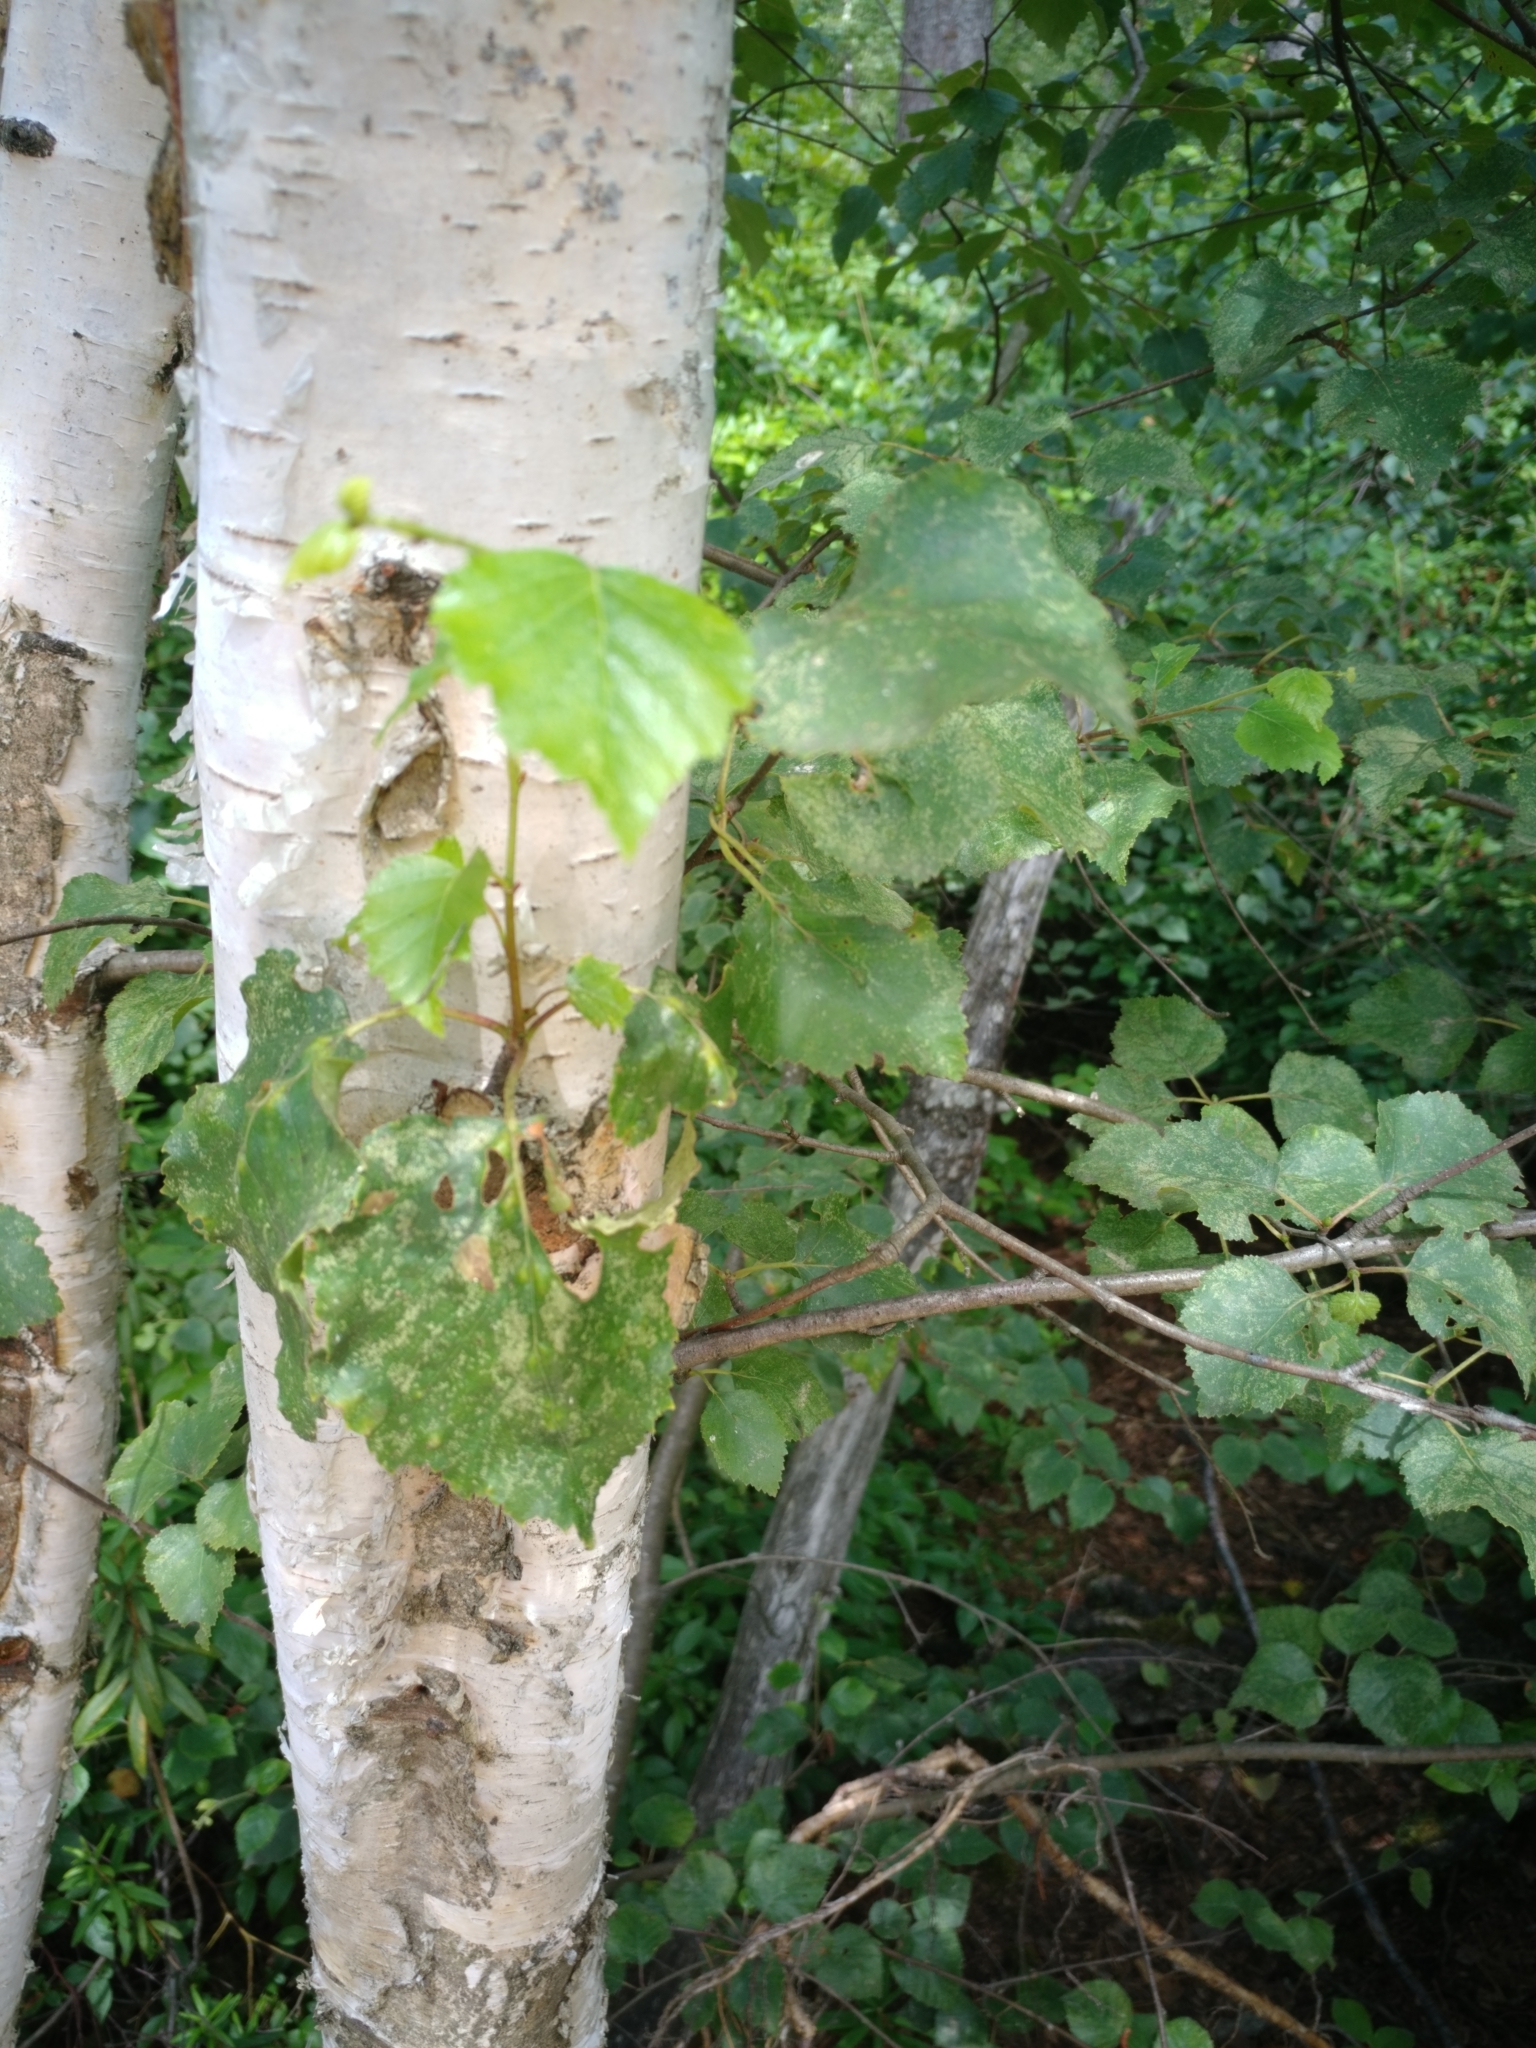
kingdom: Plantae
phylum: Tracheophyta
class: Magnoliopsida
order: Fagales
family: Betulaceae
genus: Betula
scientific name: Betula papyrifera
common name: Paper birch
